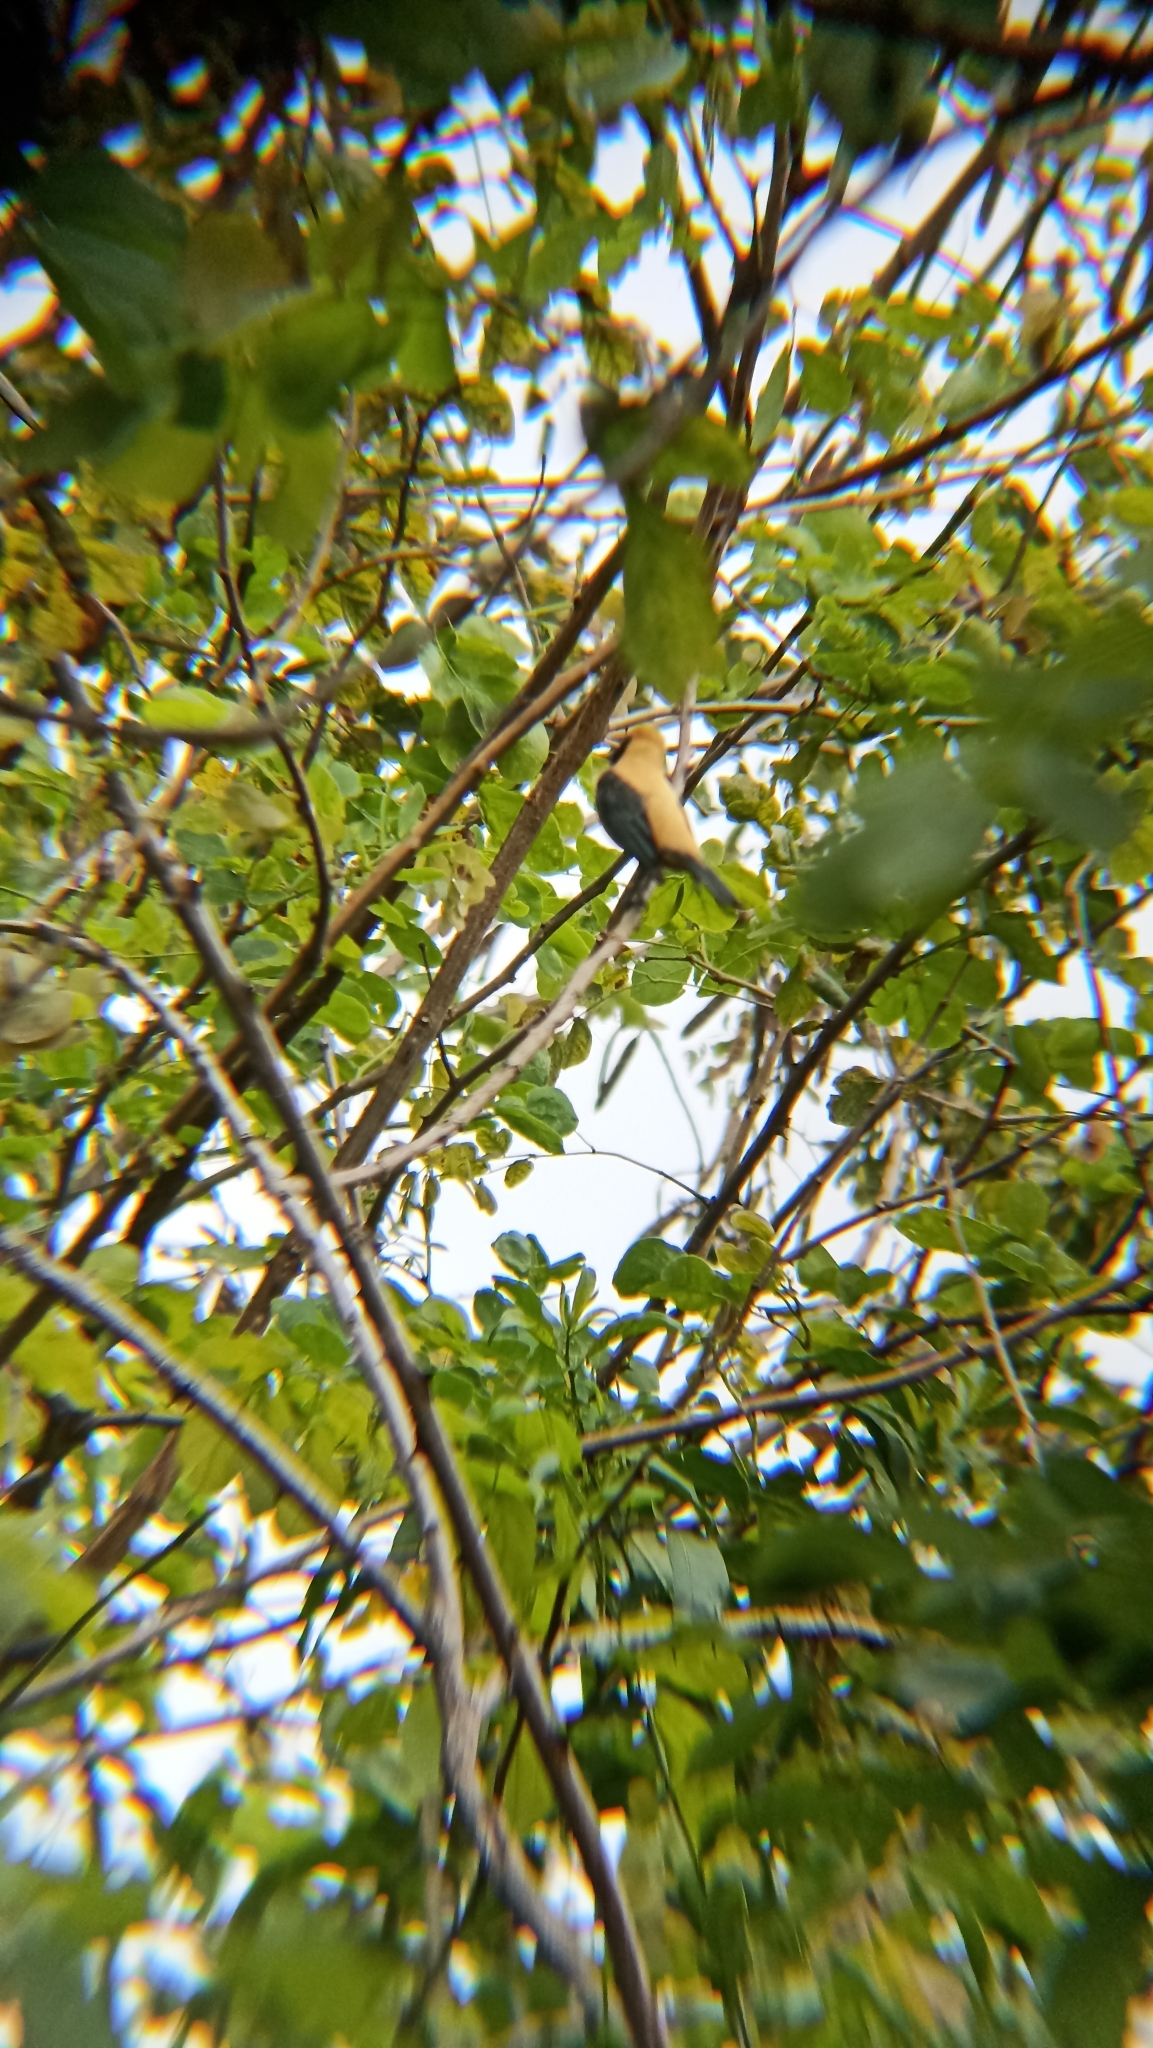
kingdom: Animalia
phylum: Chordata
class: Aves
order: Passeriformes
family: Thraupidae
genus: Stilpnia
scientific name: Stilpnia cayana
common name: Burnished-buff tanager
